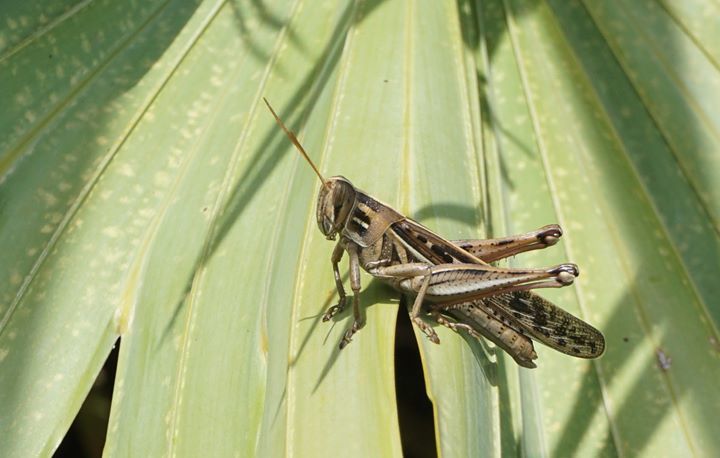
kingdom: Animalia
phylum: Arthropoda
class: Insecta
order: Orthoptera
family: Acrididae
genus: Schistocerca
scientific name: Schistocerca serialis
